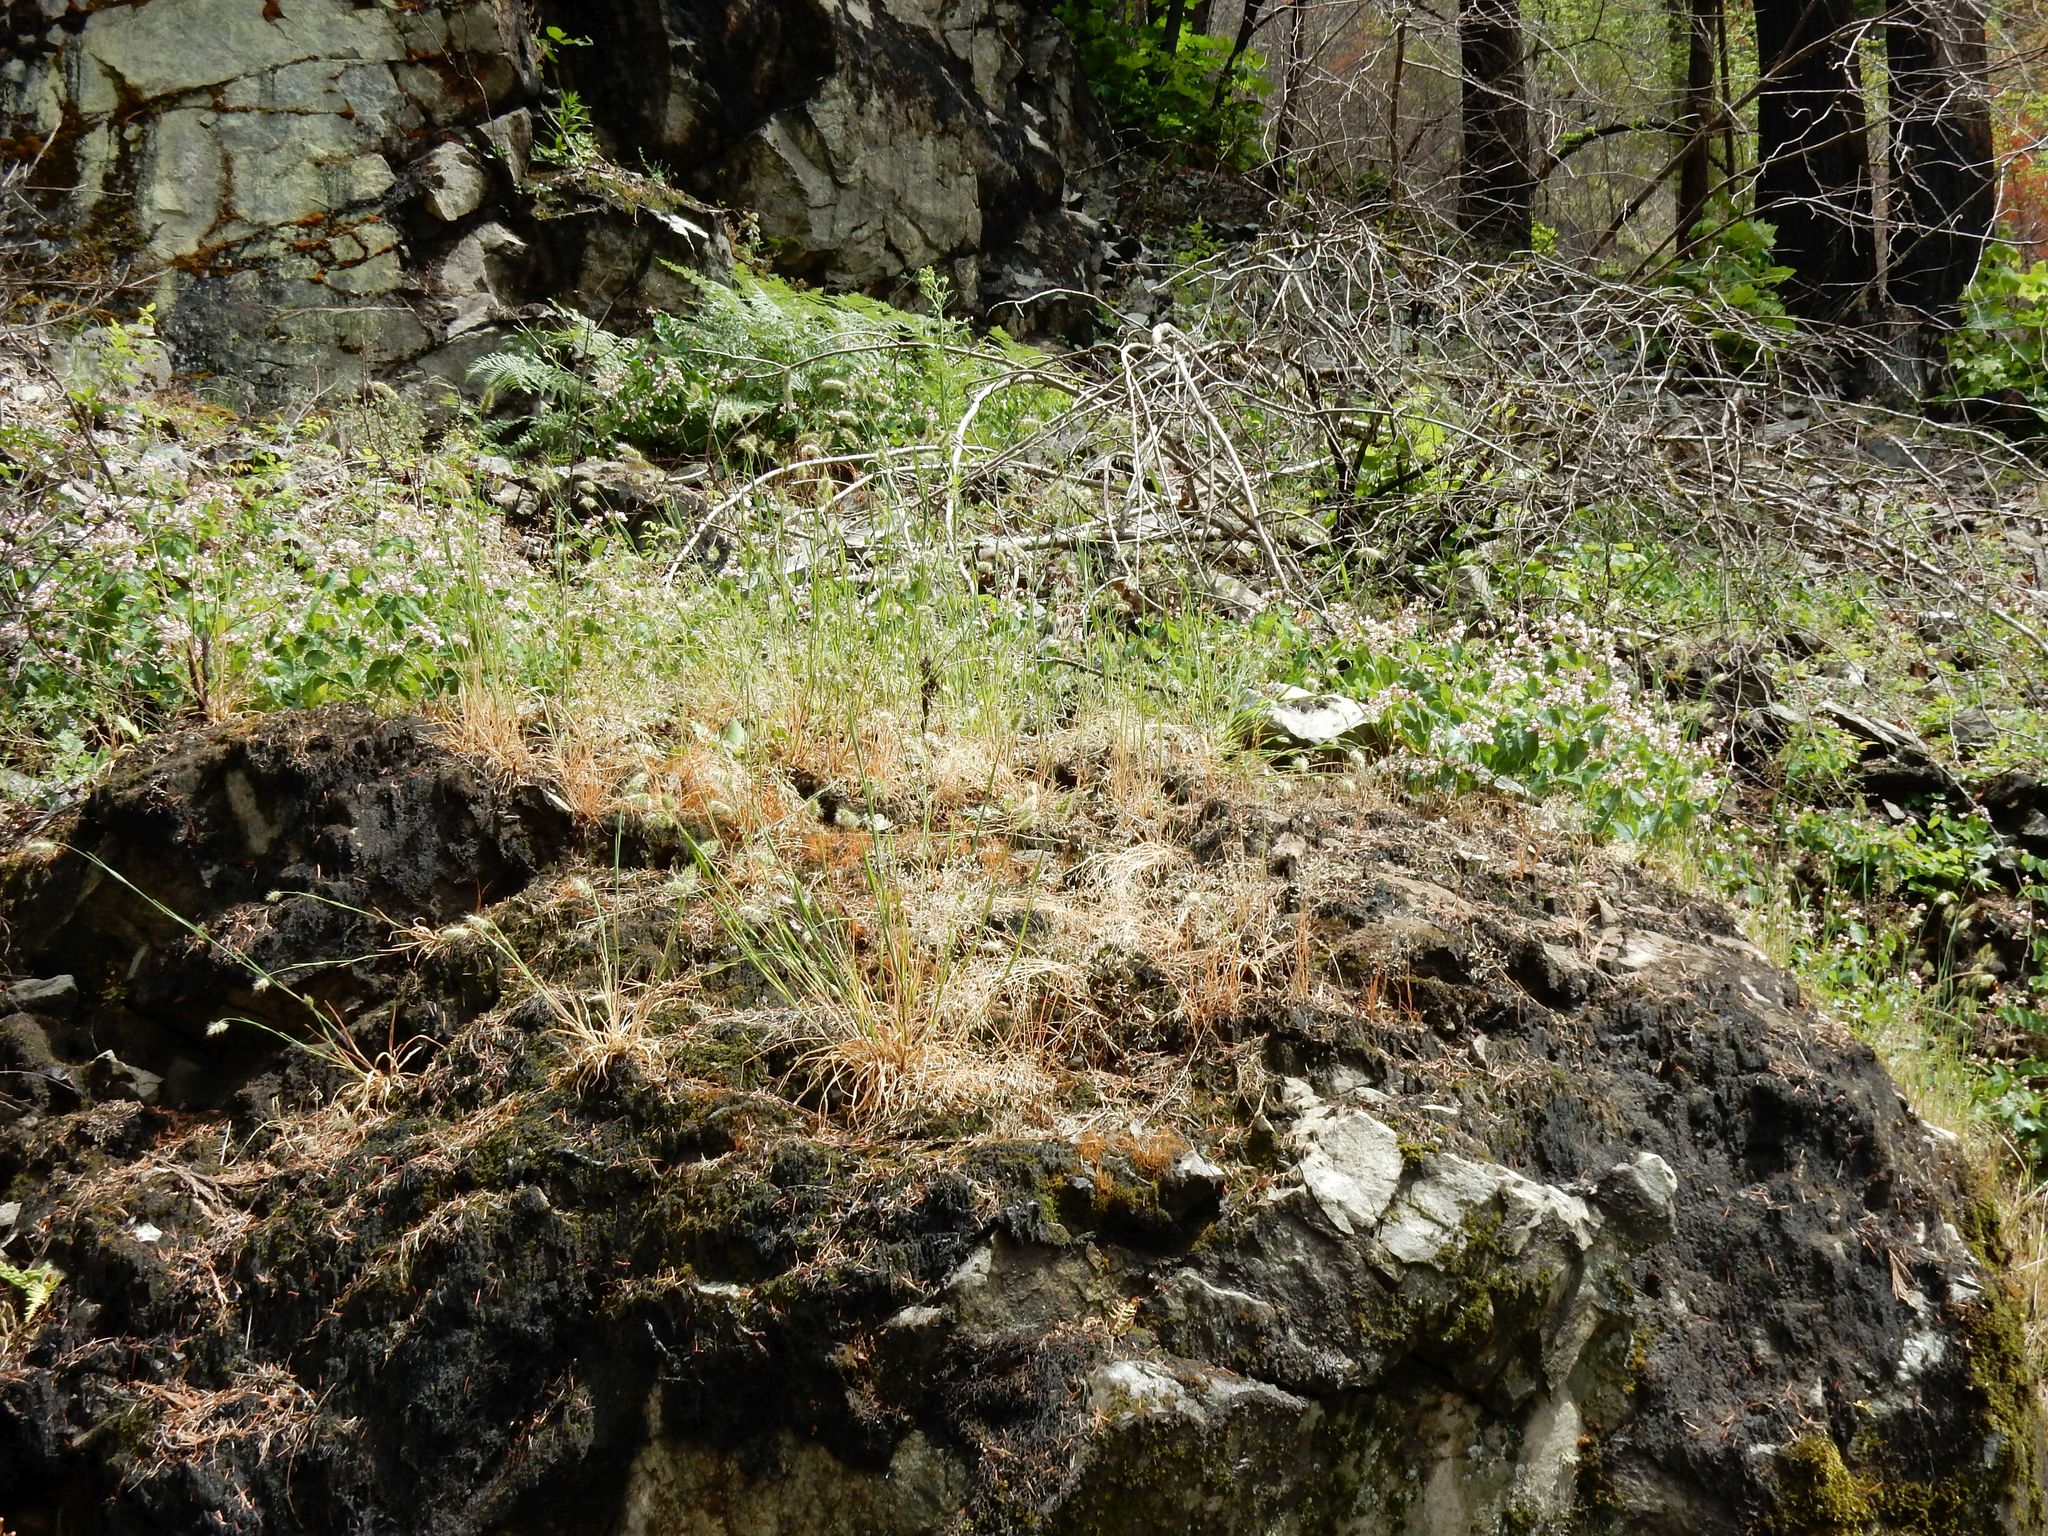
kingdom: Plantae
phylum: Tracheophyta
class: Magnoliopsida
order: Gentianales
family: Apocynaceae
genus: Apocynum
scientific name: Apocynum androsaemifolium
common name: Spreading dogbane
